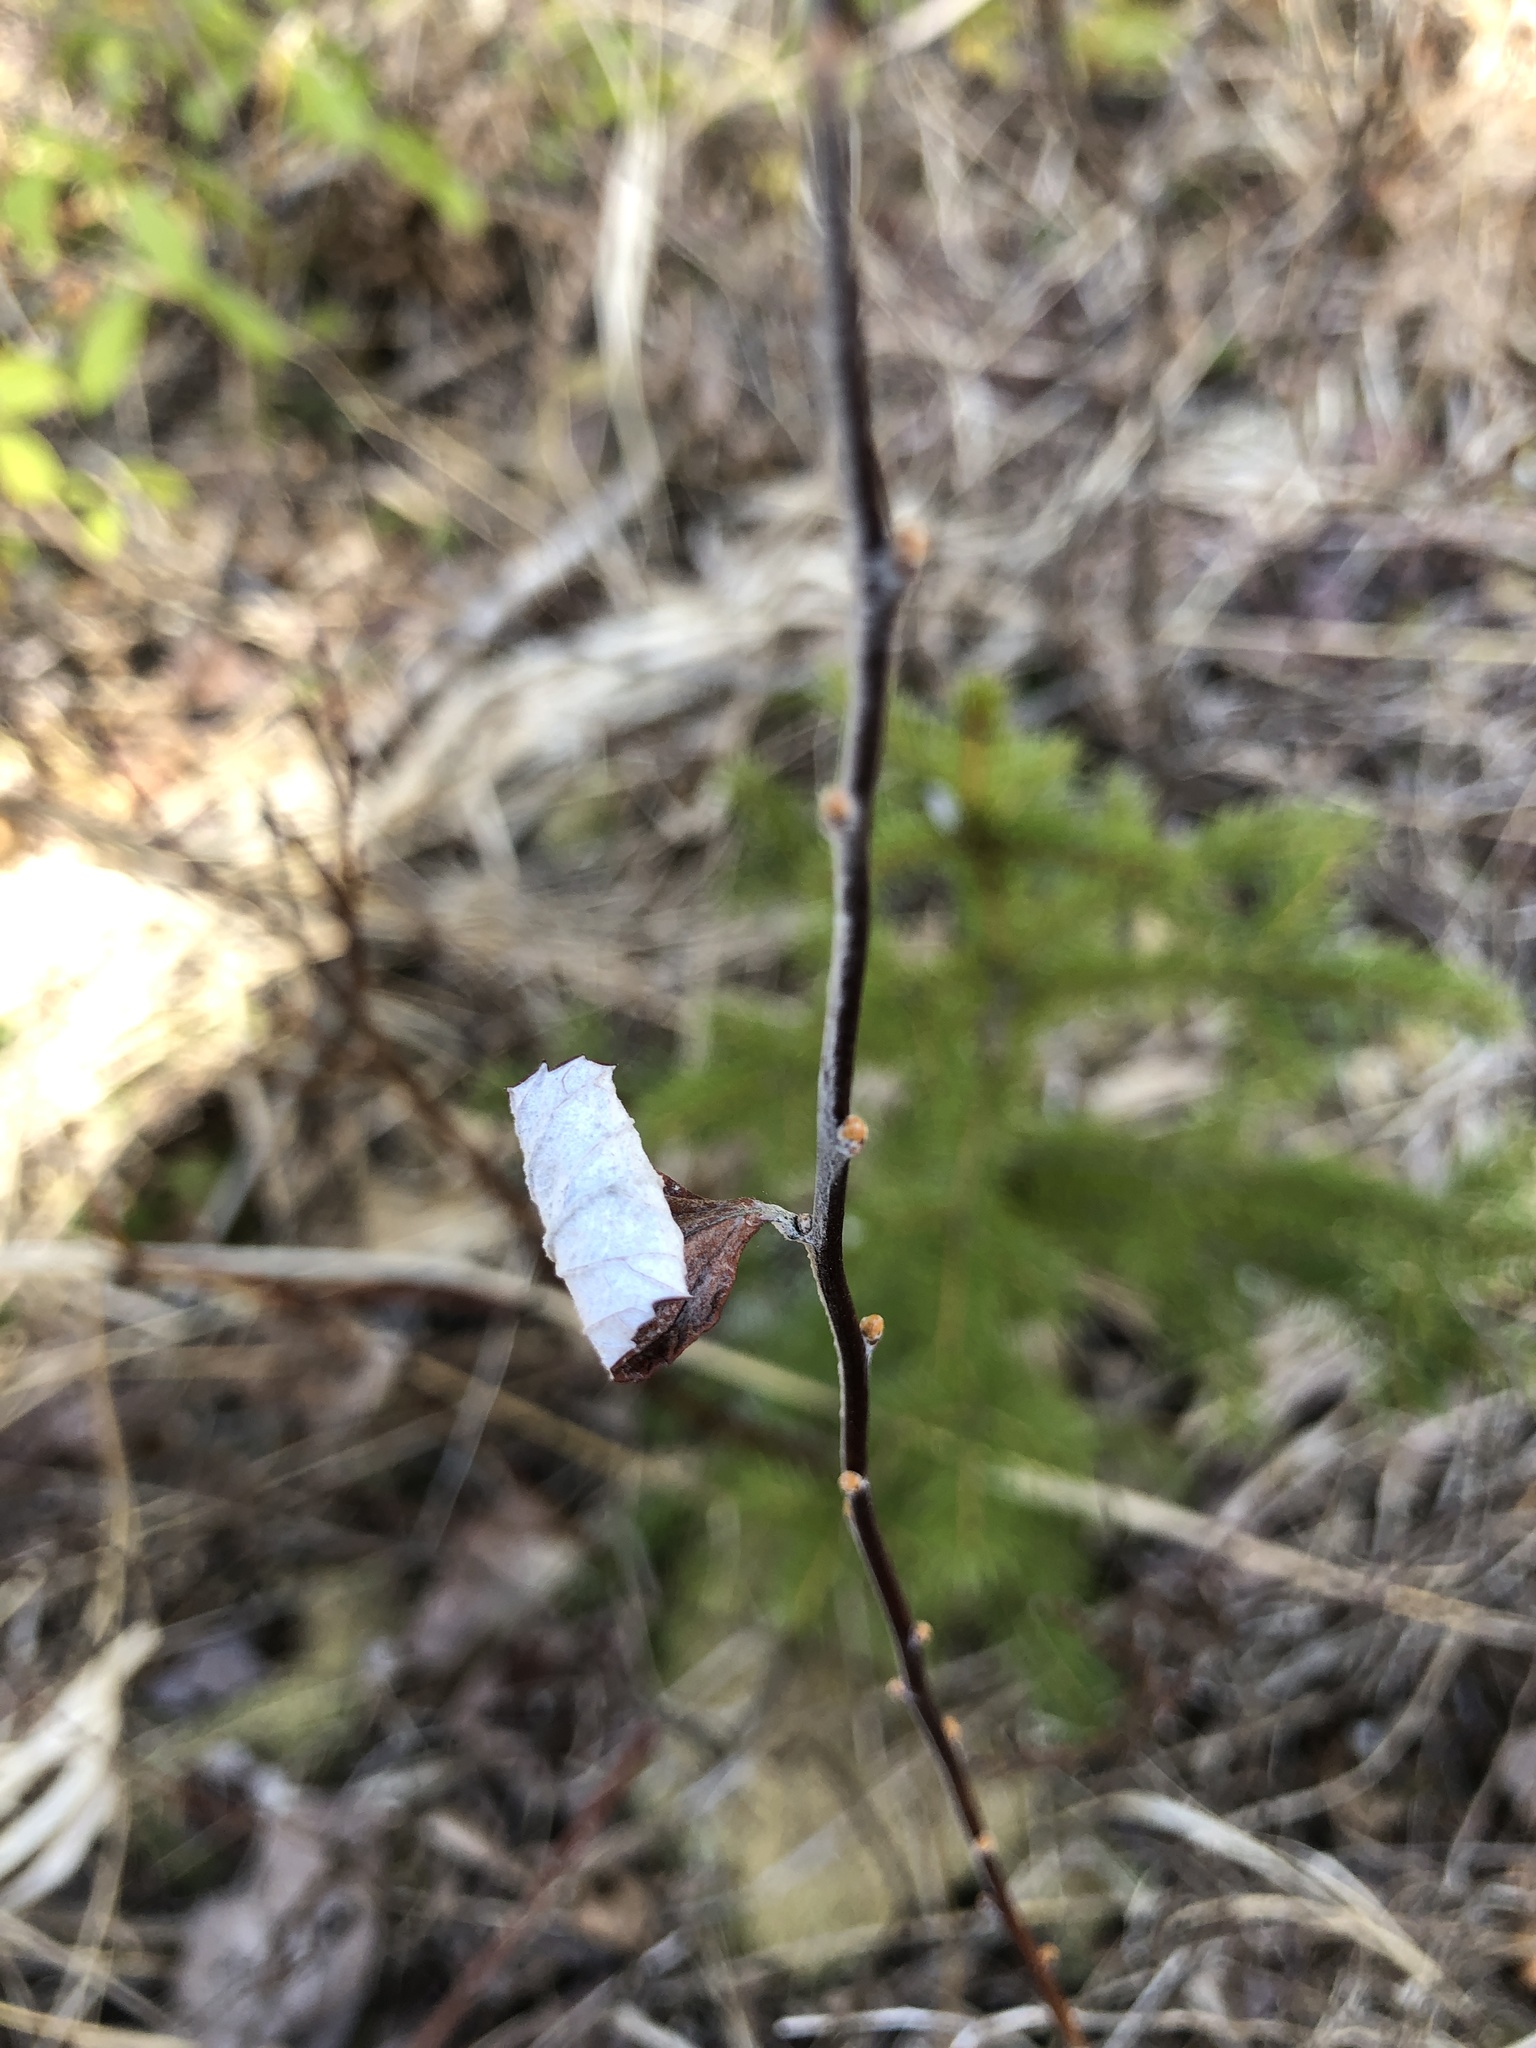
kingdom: Plantae
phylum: Tracheophyta
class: Magnoliopsida
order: Rosales
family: Rosaceae
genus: Spiraea
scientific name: Spiraea tomentosa
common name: Hardhack
